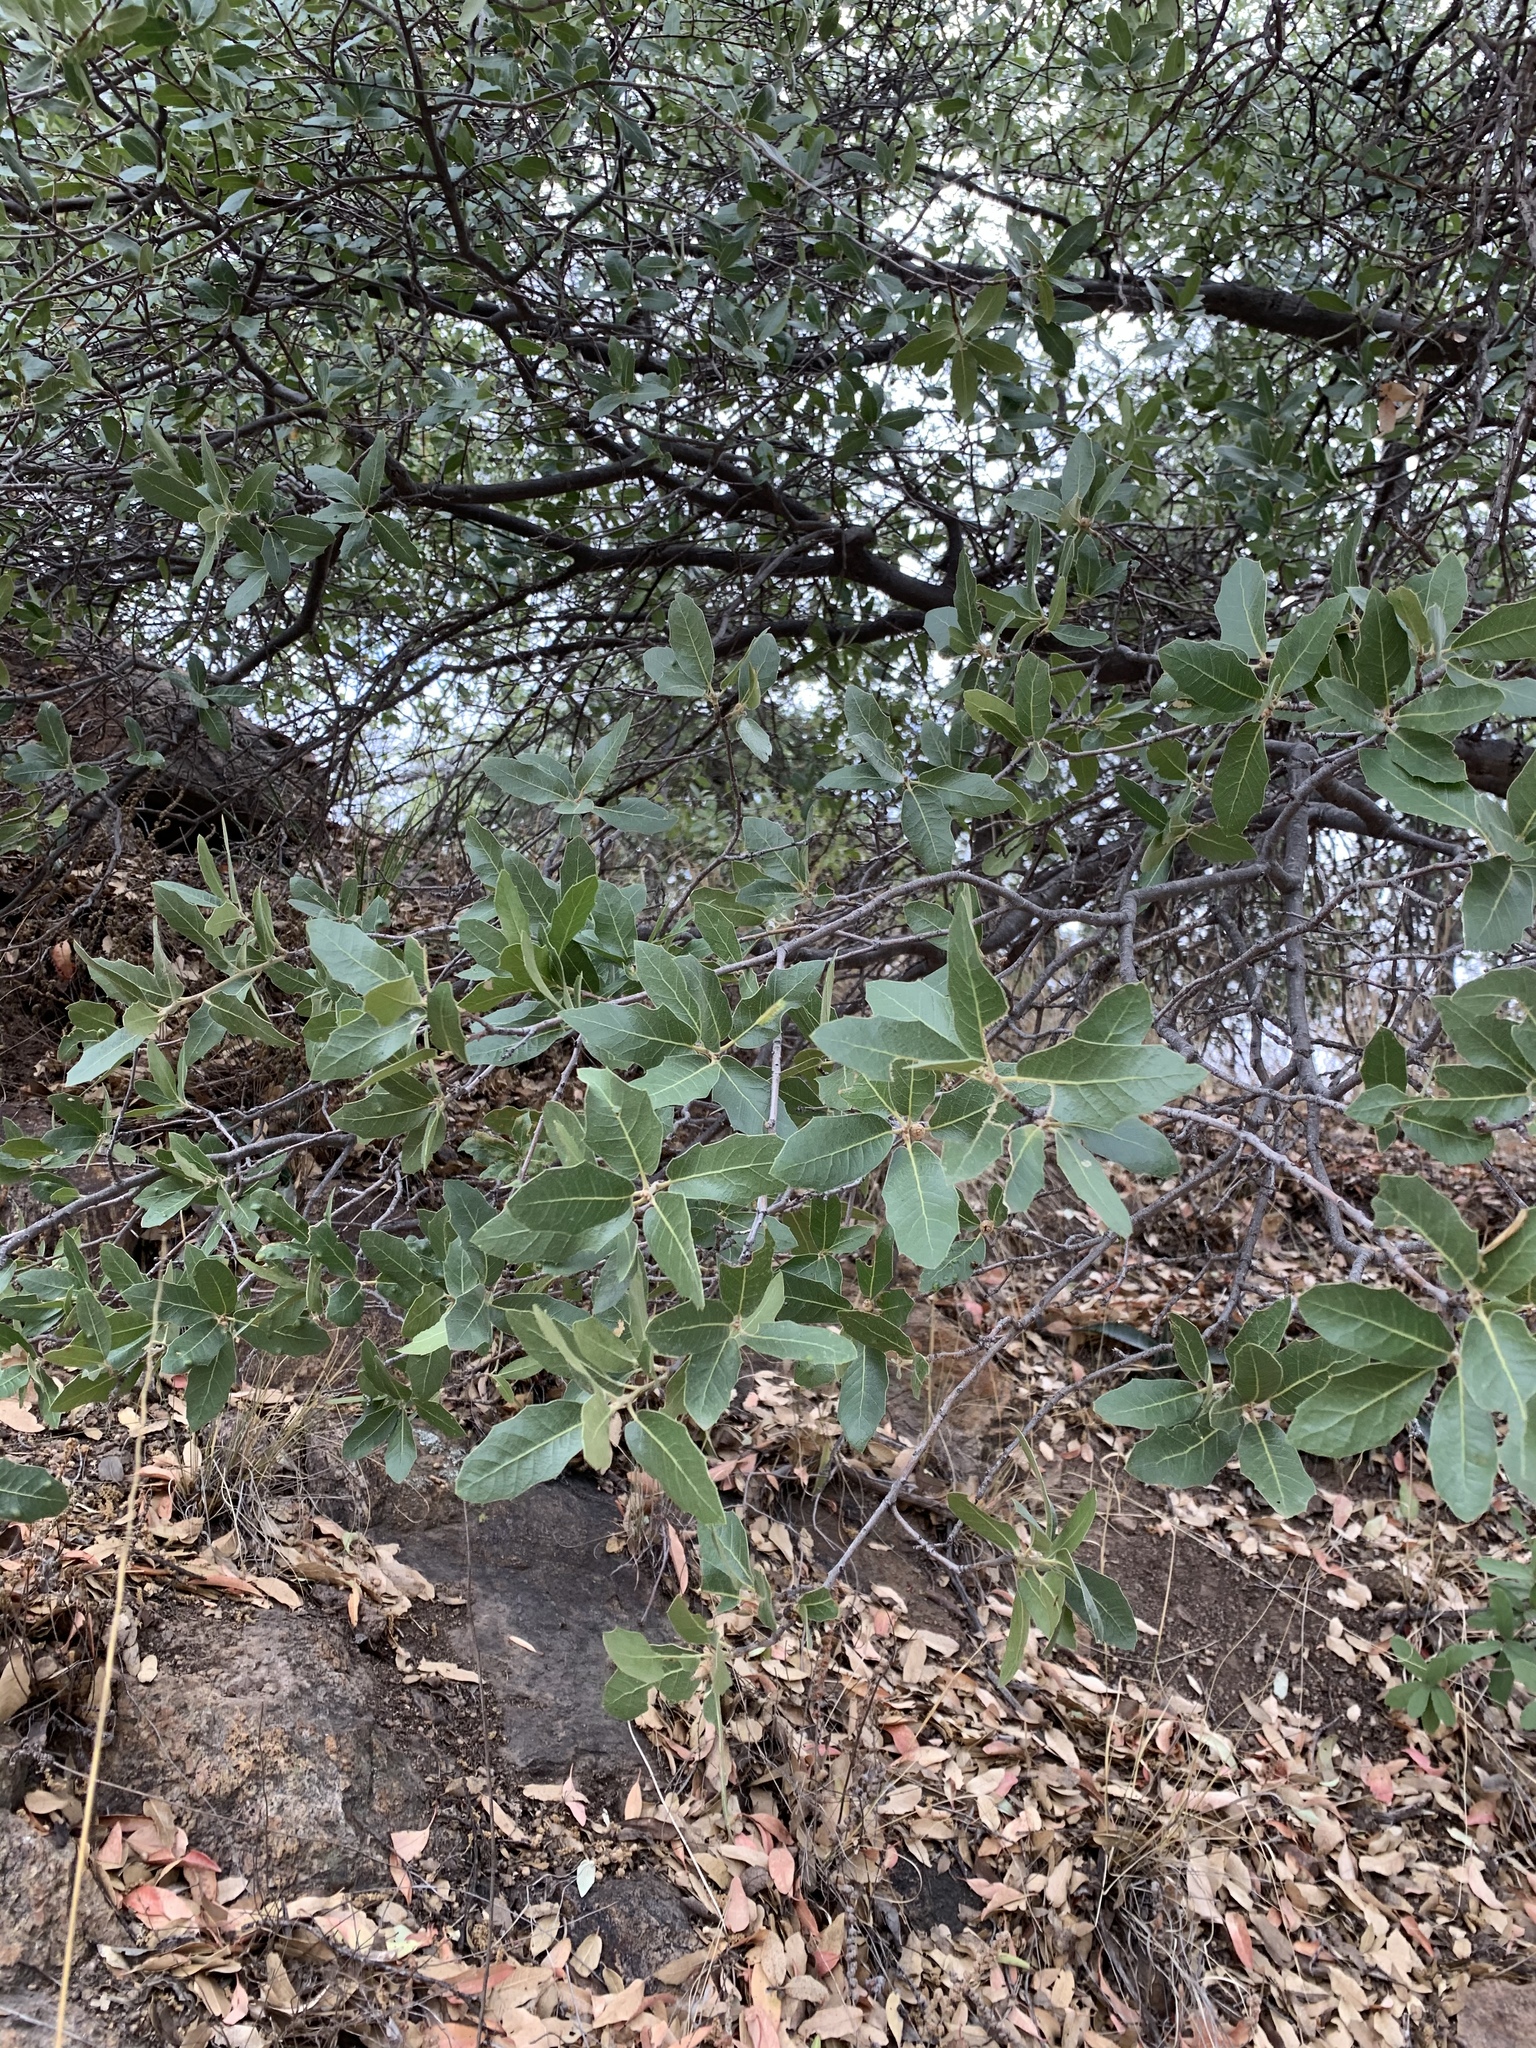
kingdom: Plantae
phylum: Tracheophyta
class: Magnoliopsida
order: Fagales
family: Fagaceae
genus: Quercus
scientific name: Quercus emoryi
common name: Emory oak
